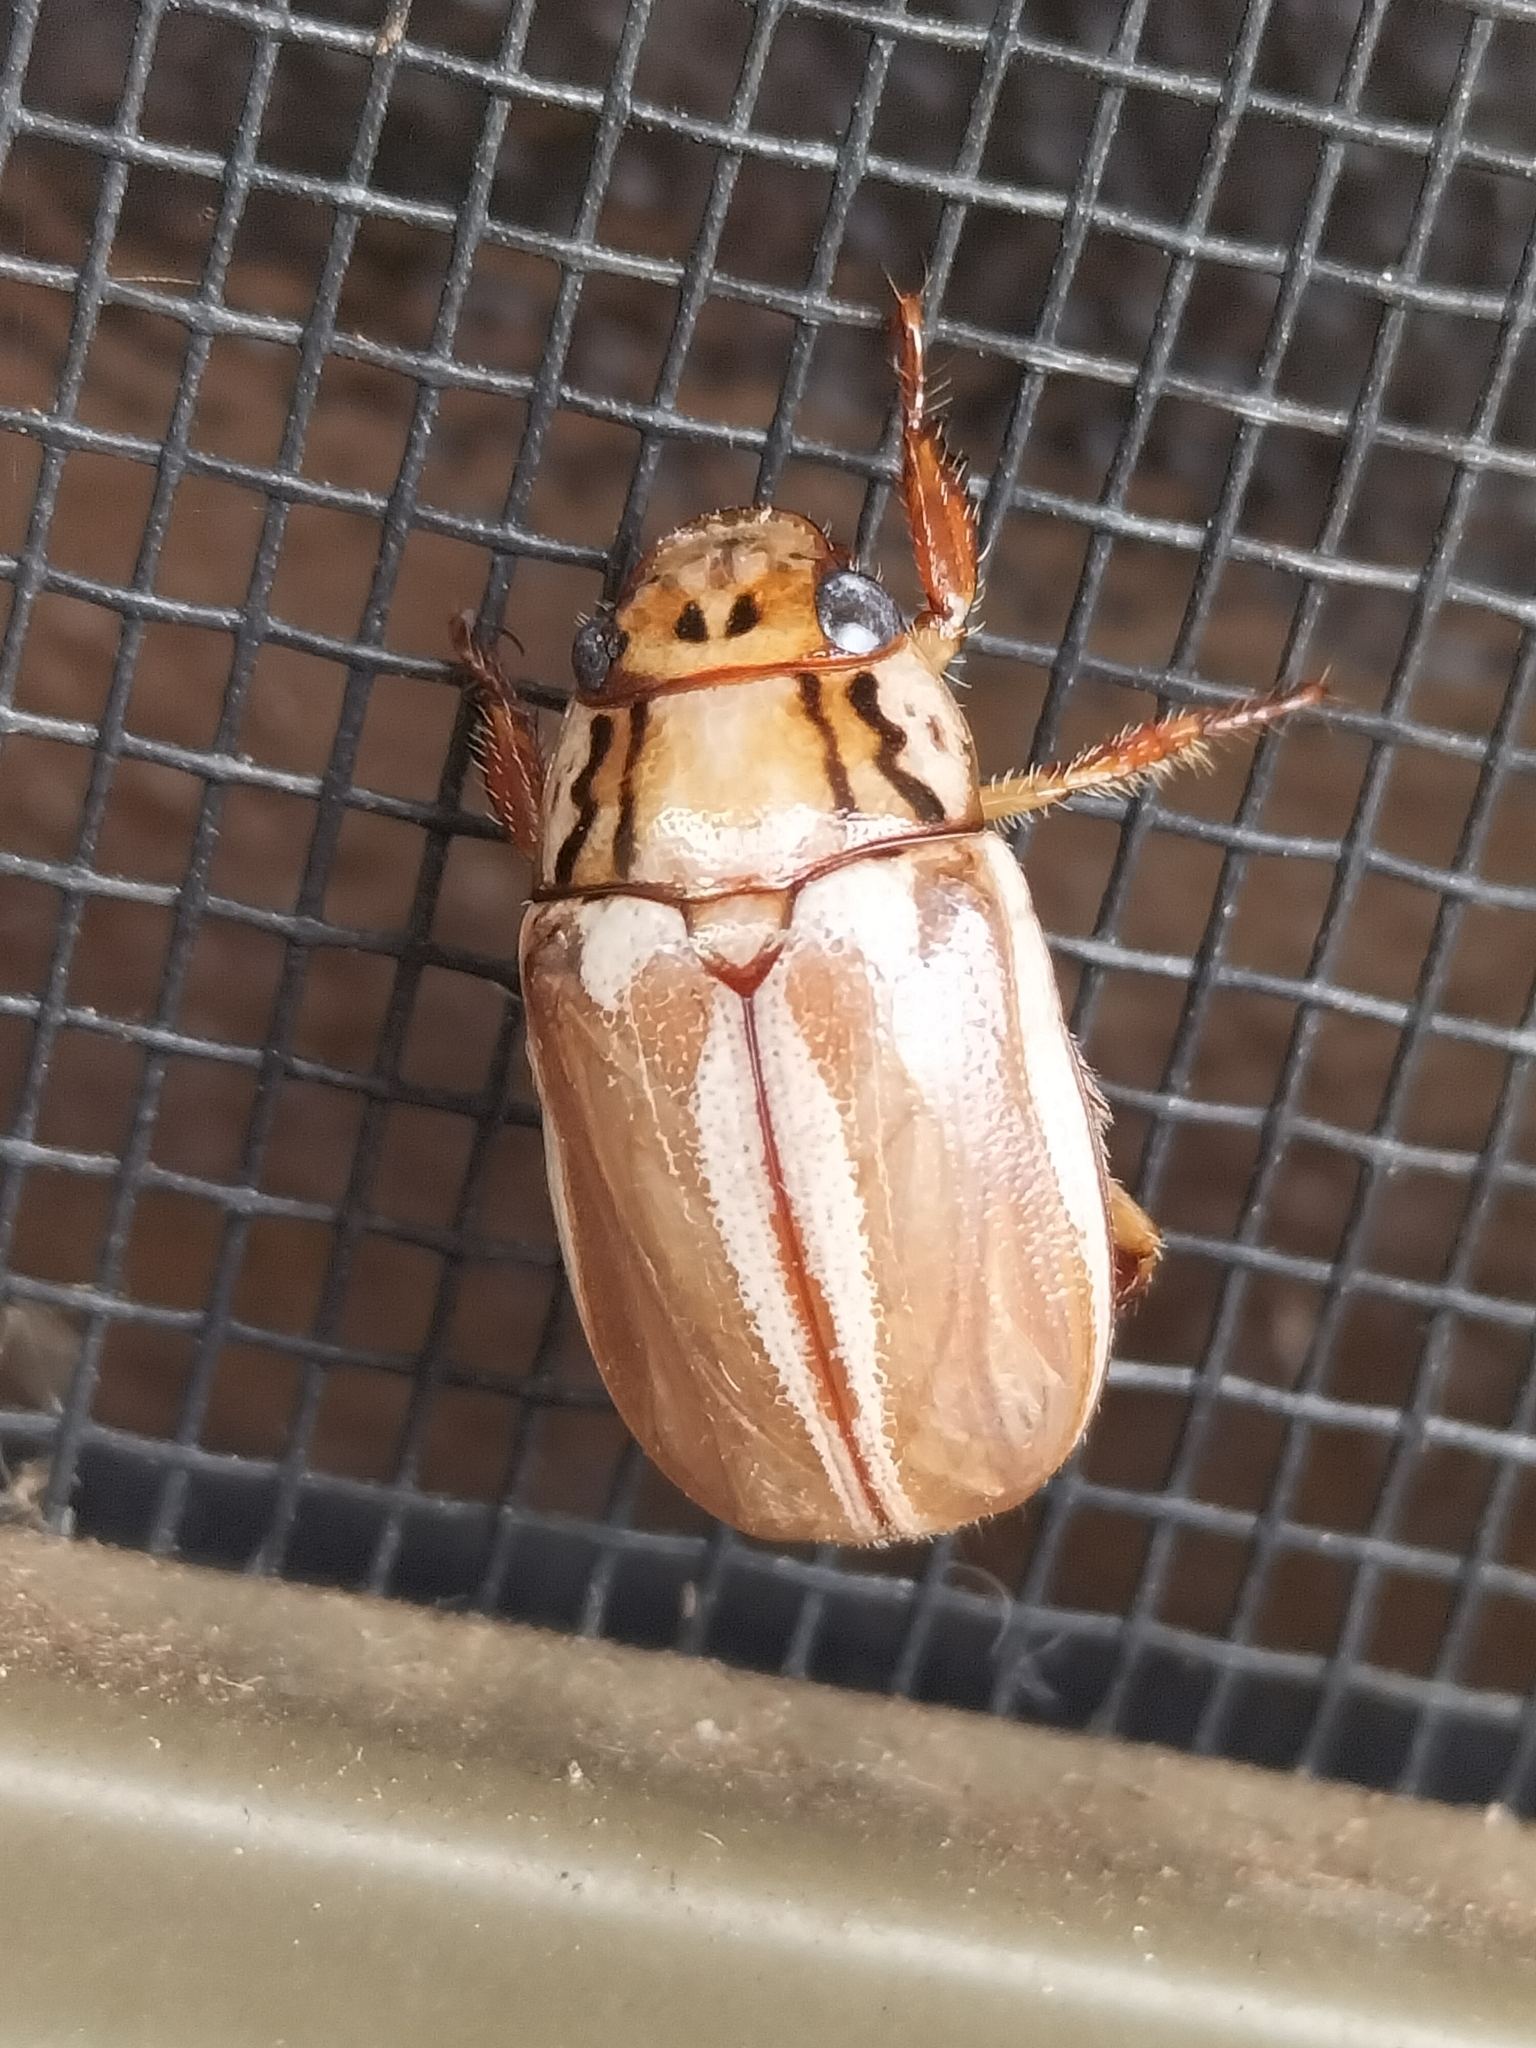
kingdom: Animalia
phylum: Arthropoda
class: Insecta
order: Coleoptera
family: Scarabaeidae
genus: Anoplognathus
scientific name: Anoplognathus abnormis
